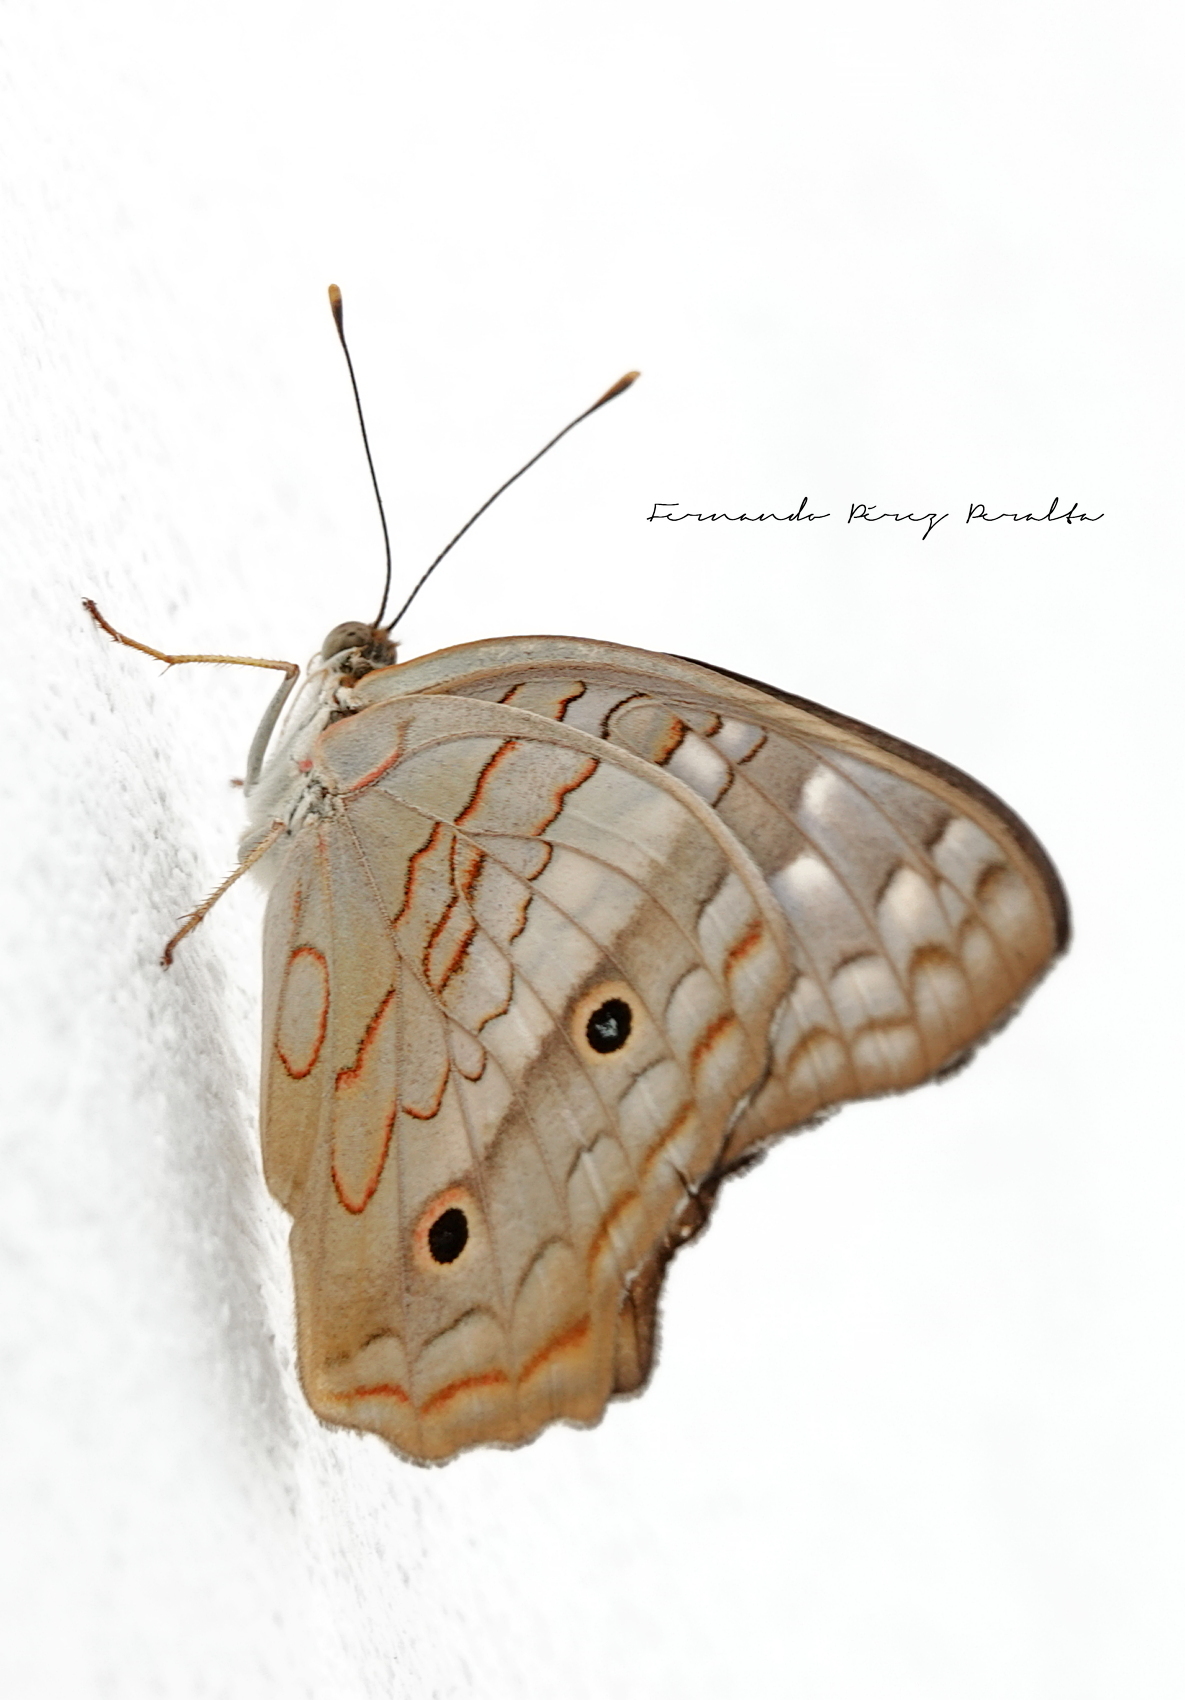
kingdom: Animalia
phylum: Arthropoda
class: Insecta
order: Lepidoptera
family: Nymphalidae
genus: Anartia
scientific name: Anartia jatrophae
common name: White peacock
